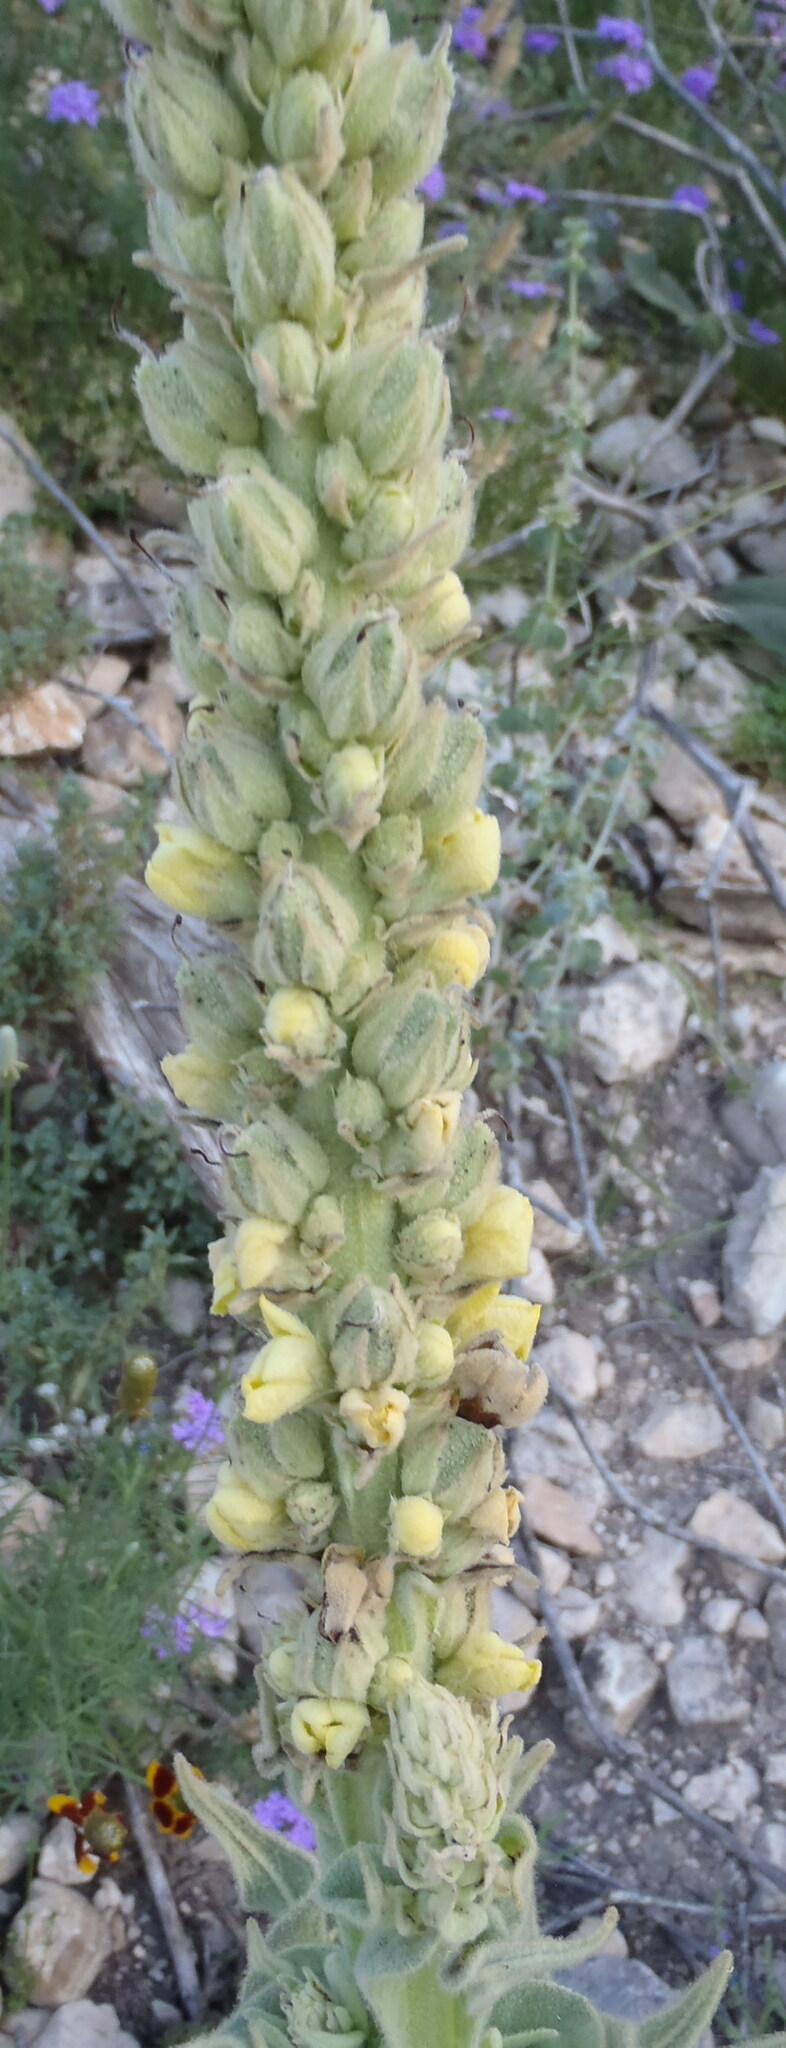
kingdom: Plantae
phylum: Tracheophyta
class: Magnoliopsida
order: Lamiales
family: Scrophulariaceae
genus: Verbascum
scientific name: Verbascum thapsus
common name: Common mullein
